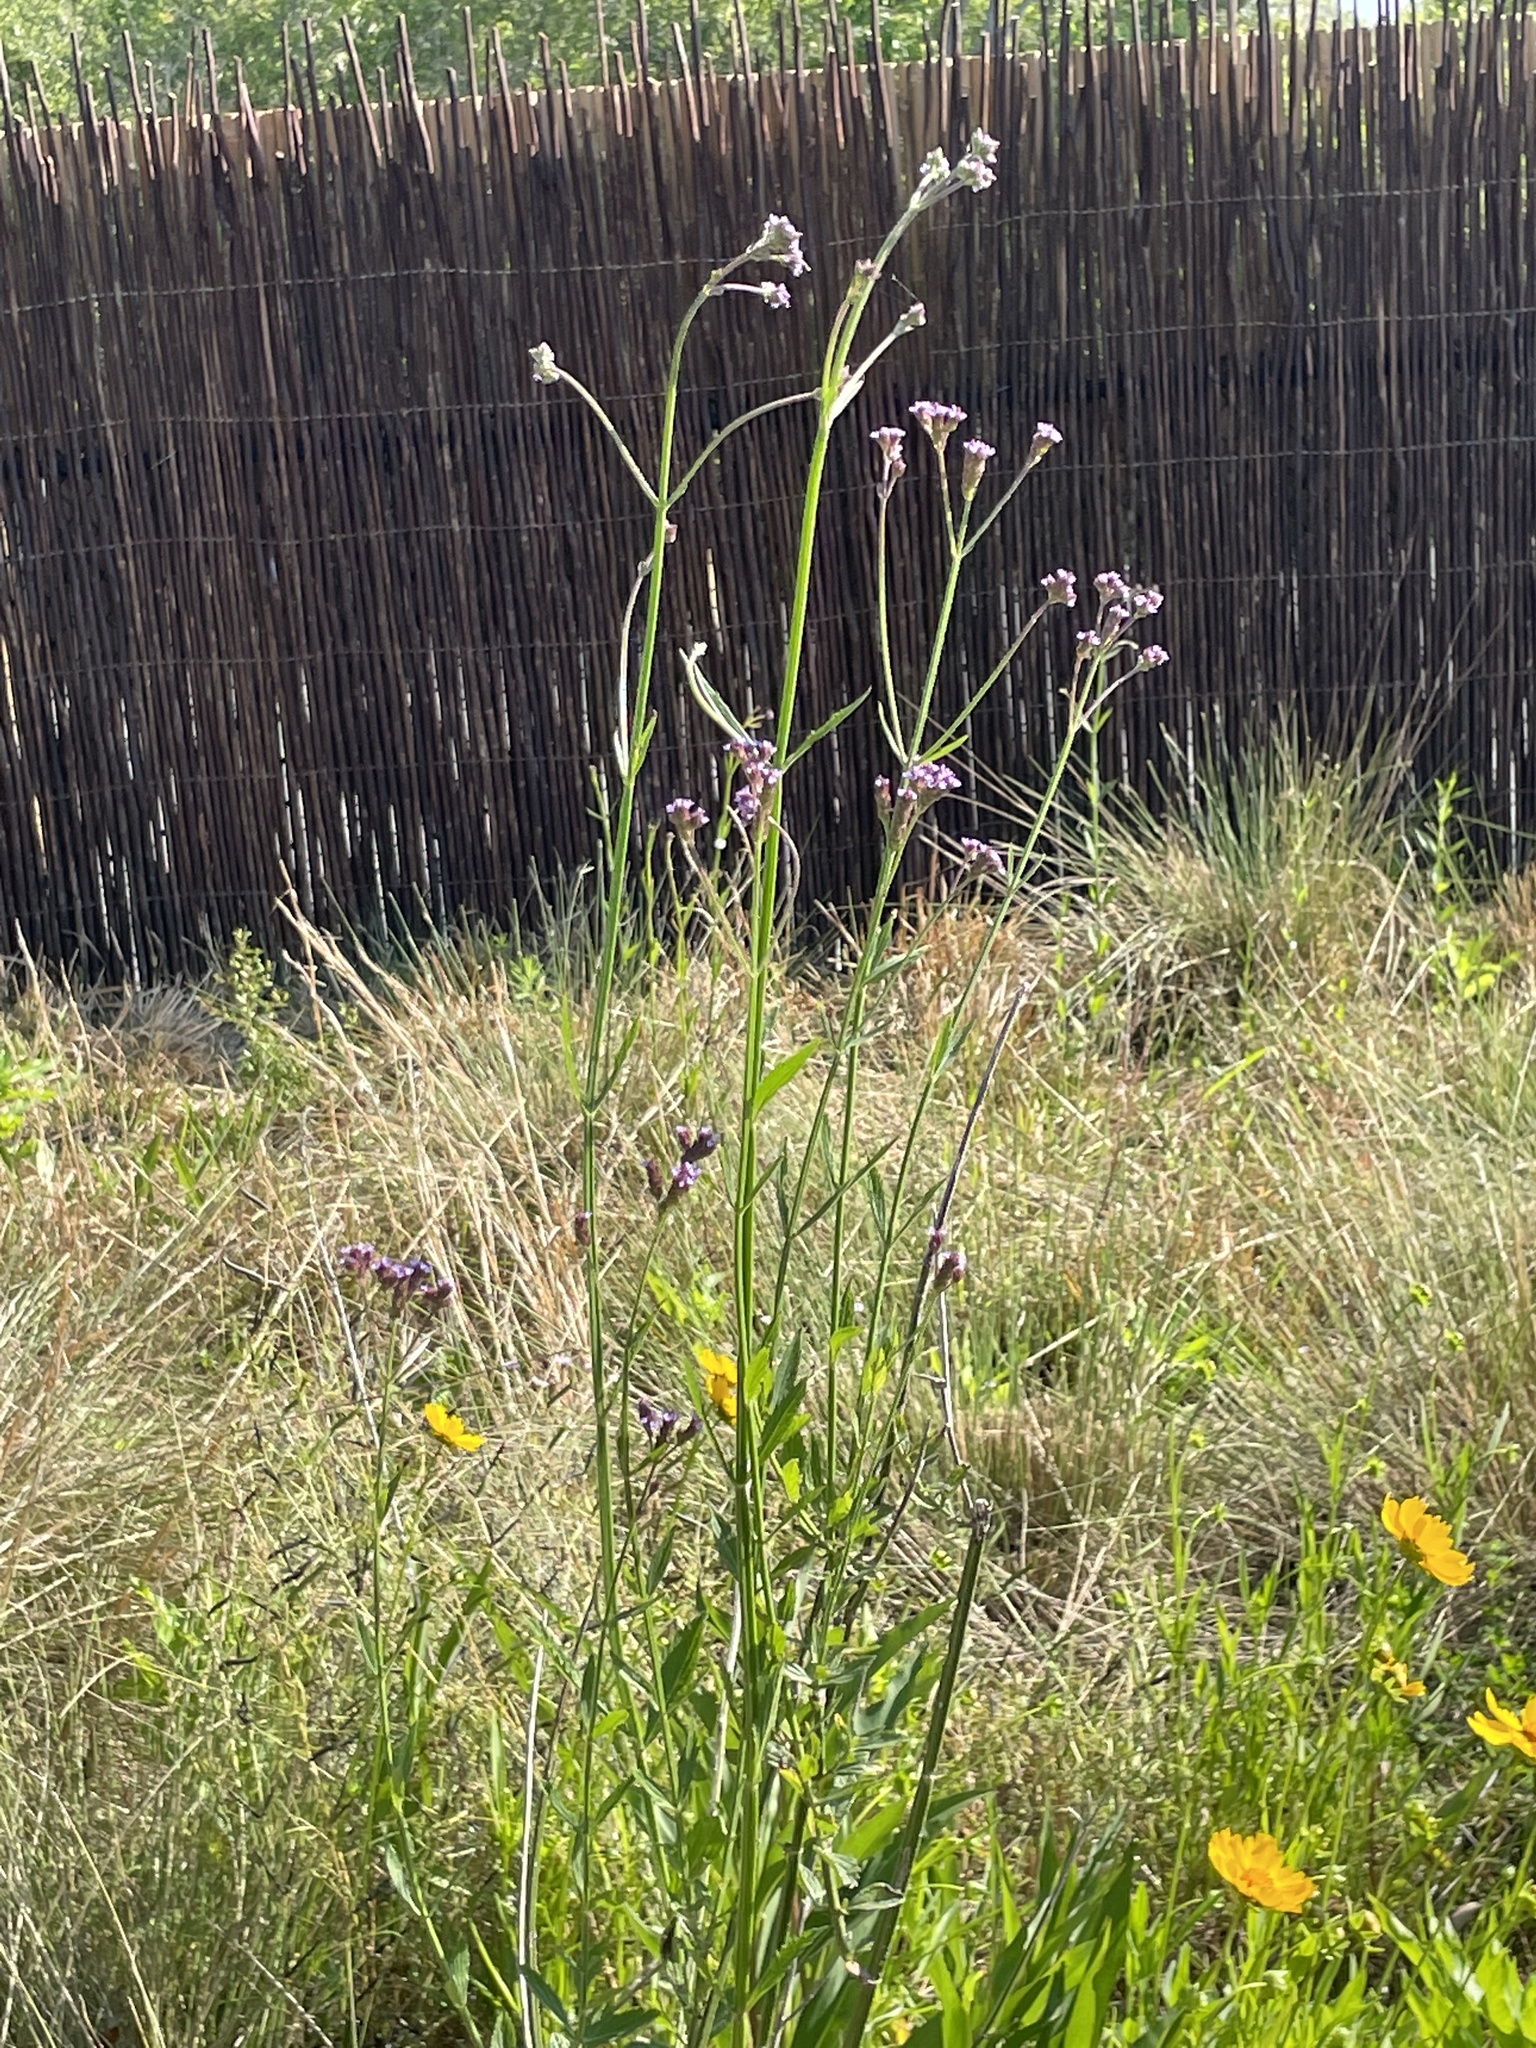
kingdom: Plantae
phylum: Tracheophyta
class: Magnoliopsida
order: Lamiales
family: Verbenaceae
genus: Verbena
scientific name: Verbena brasiliensis
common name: Brazilian vervain
